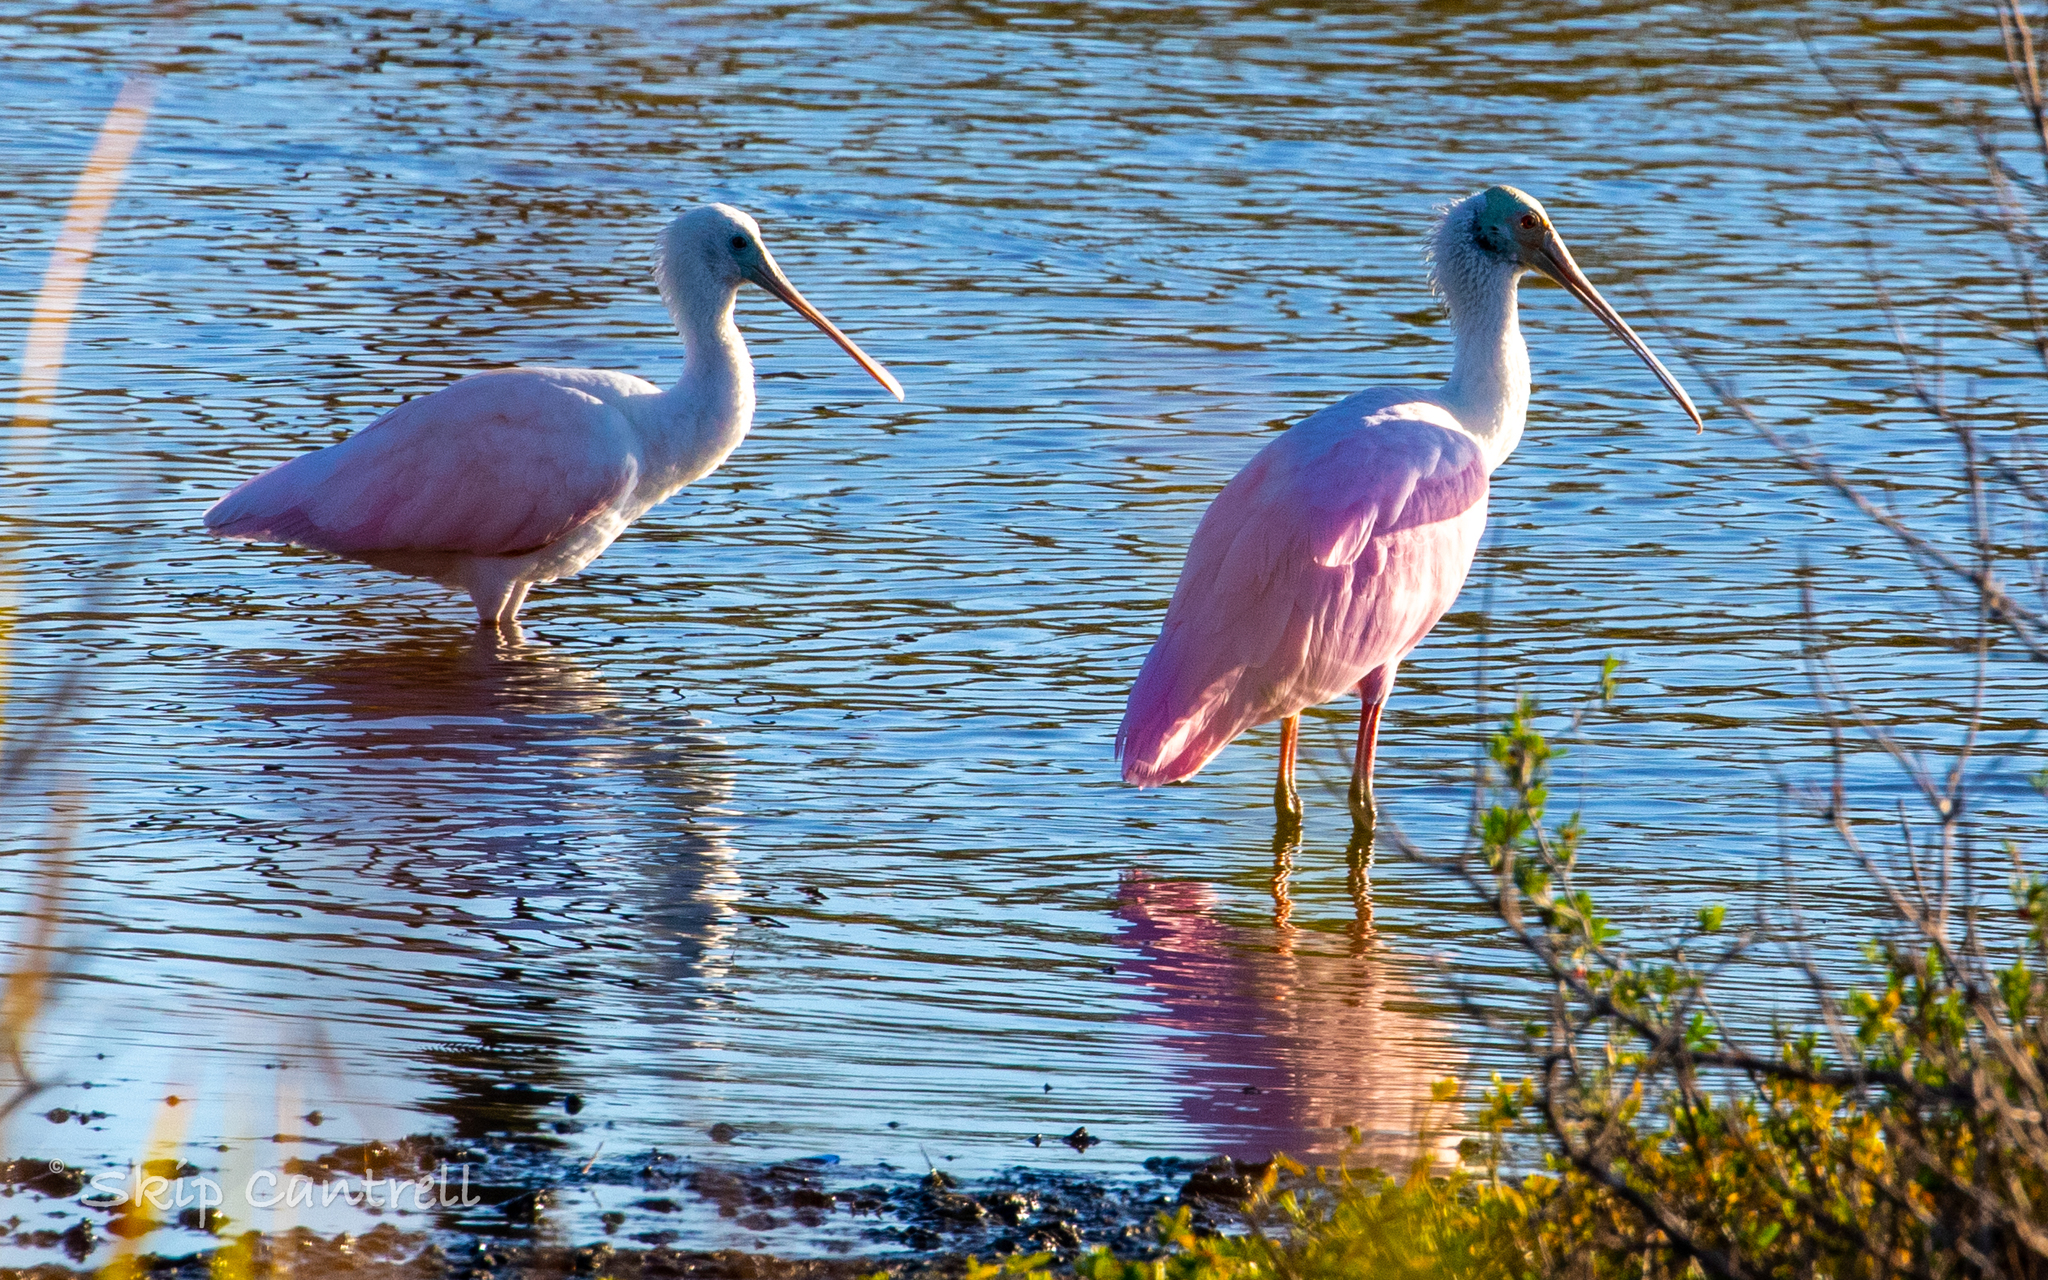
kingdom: Animalia
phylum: Chordata
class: Aves
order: Pelecaniformes
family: Threskiornithidae
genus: Platalea
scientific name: Platalea ajaja
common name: Roseate spoonbill
